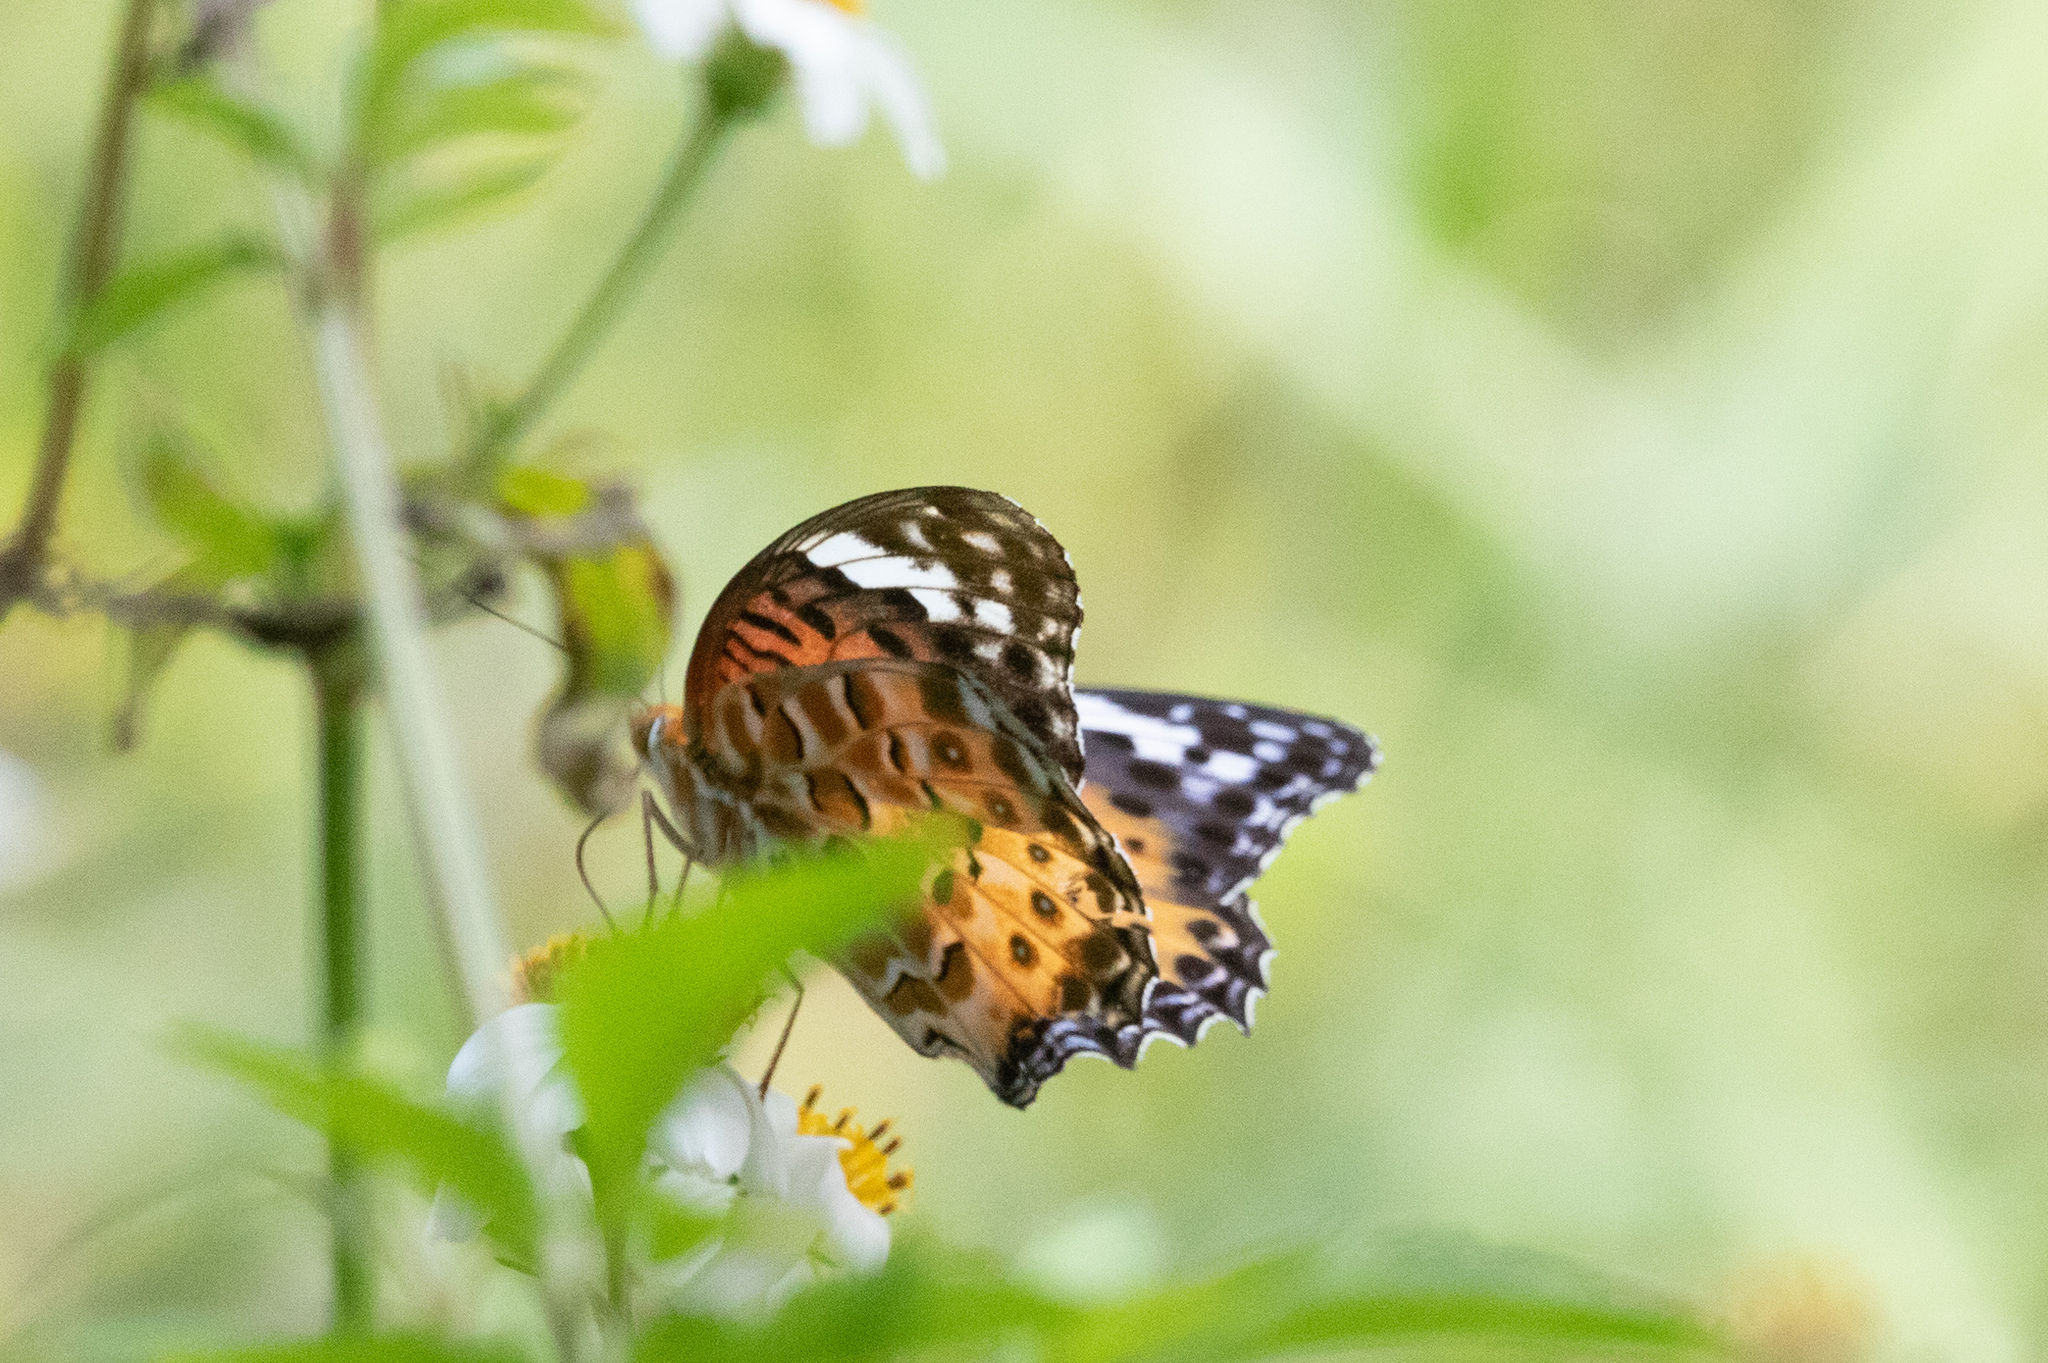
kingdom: Animalia
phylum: Arthropoda
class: Insecta
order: Lepidoptera
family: Nymphalidae
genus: Argynnis
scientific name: Argynnis hyperbius
